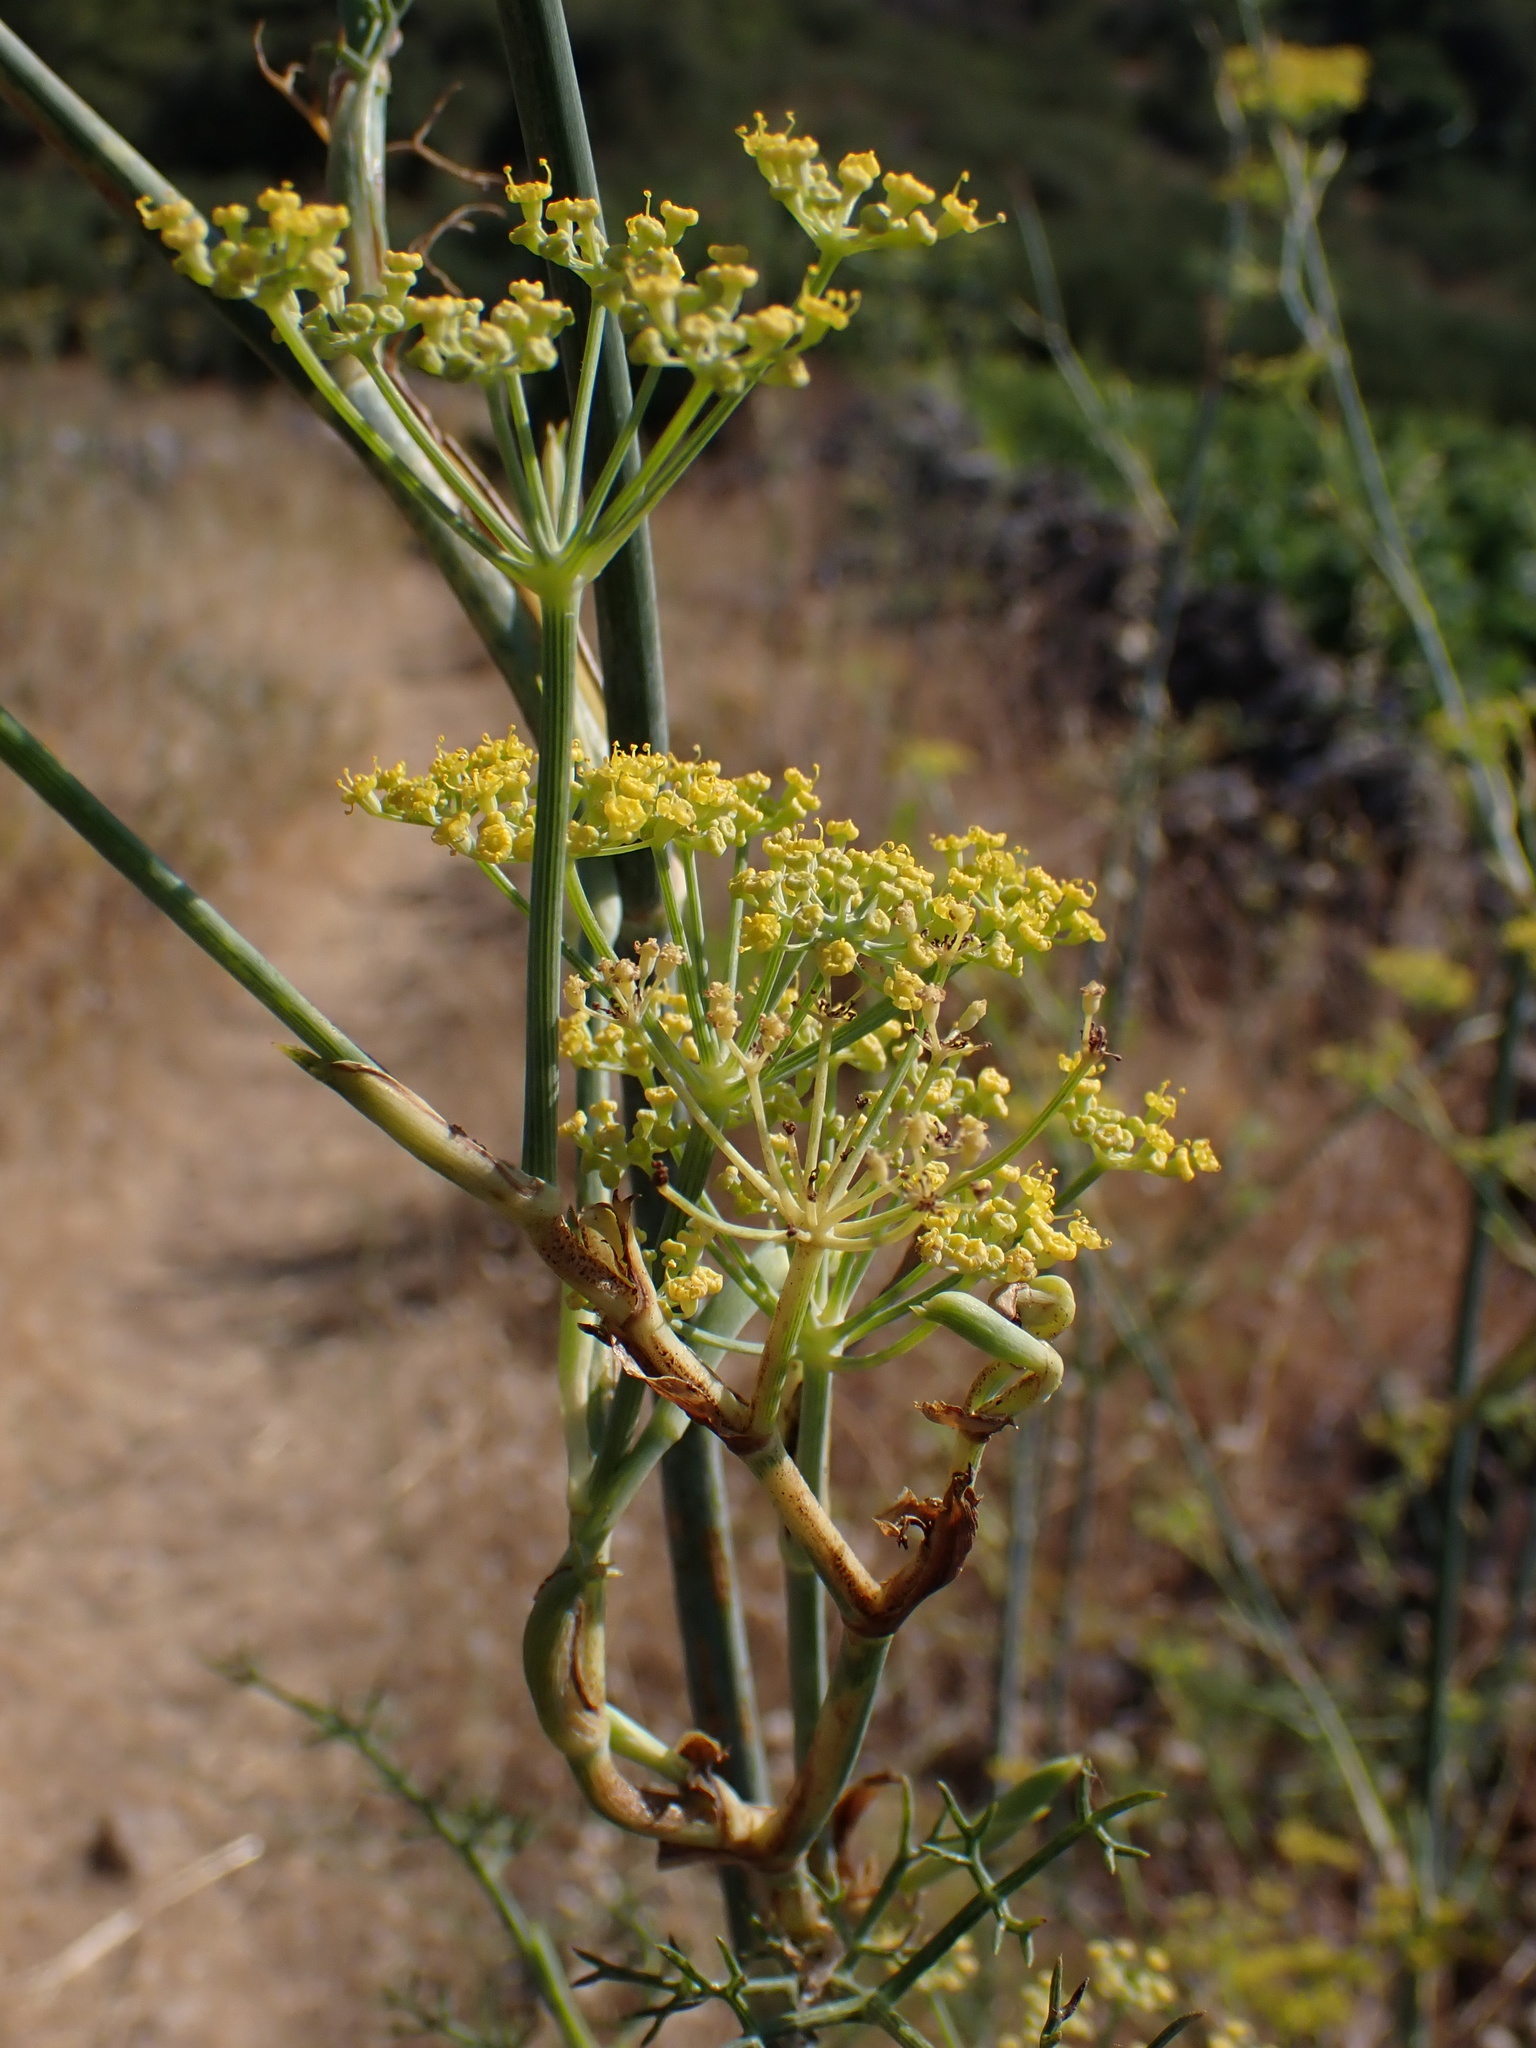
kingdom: Plantae
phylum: Tracheophyta
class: Magnoliopsida
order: Apiales
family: Apiaceae
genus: Foeniculum
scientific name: Foeniculum vulgare
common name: Fennel
